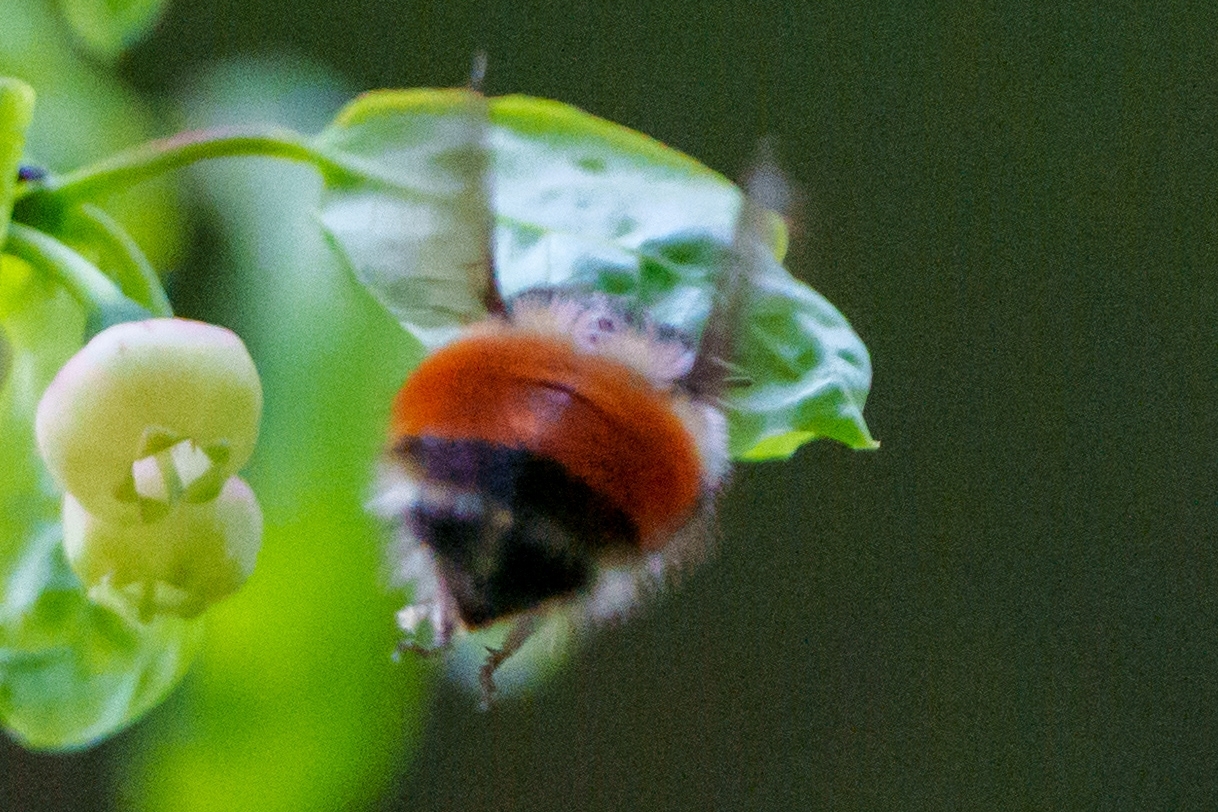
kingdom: Animalia
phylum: Arthropoda
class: Insecta
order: Hymenoptera
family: Apidae
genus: Bombus
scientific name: Bombus melanopygus
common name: Black tail bumble bee
